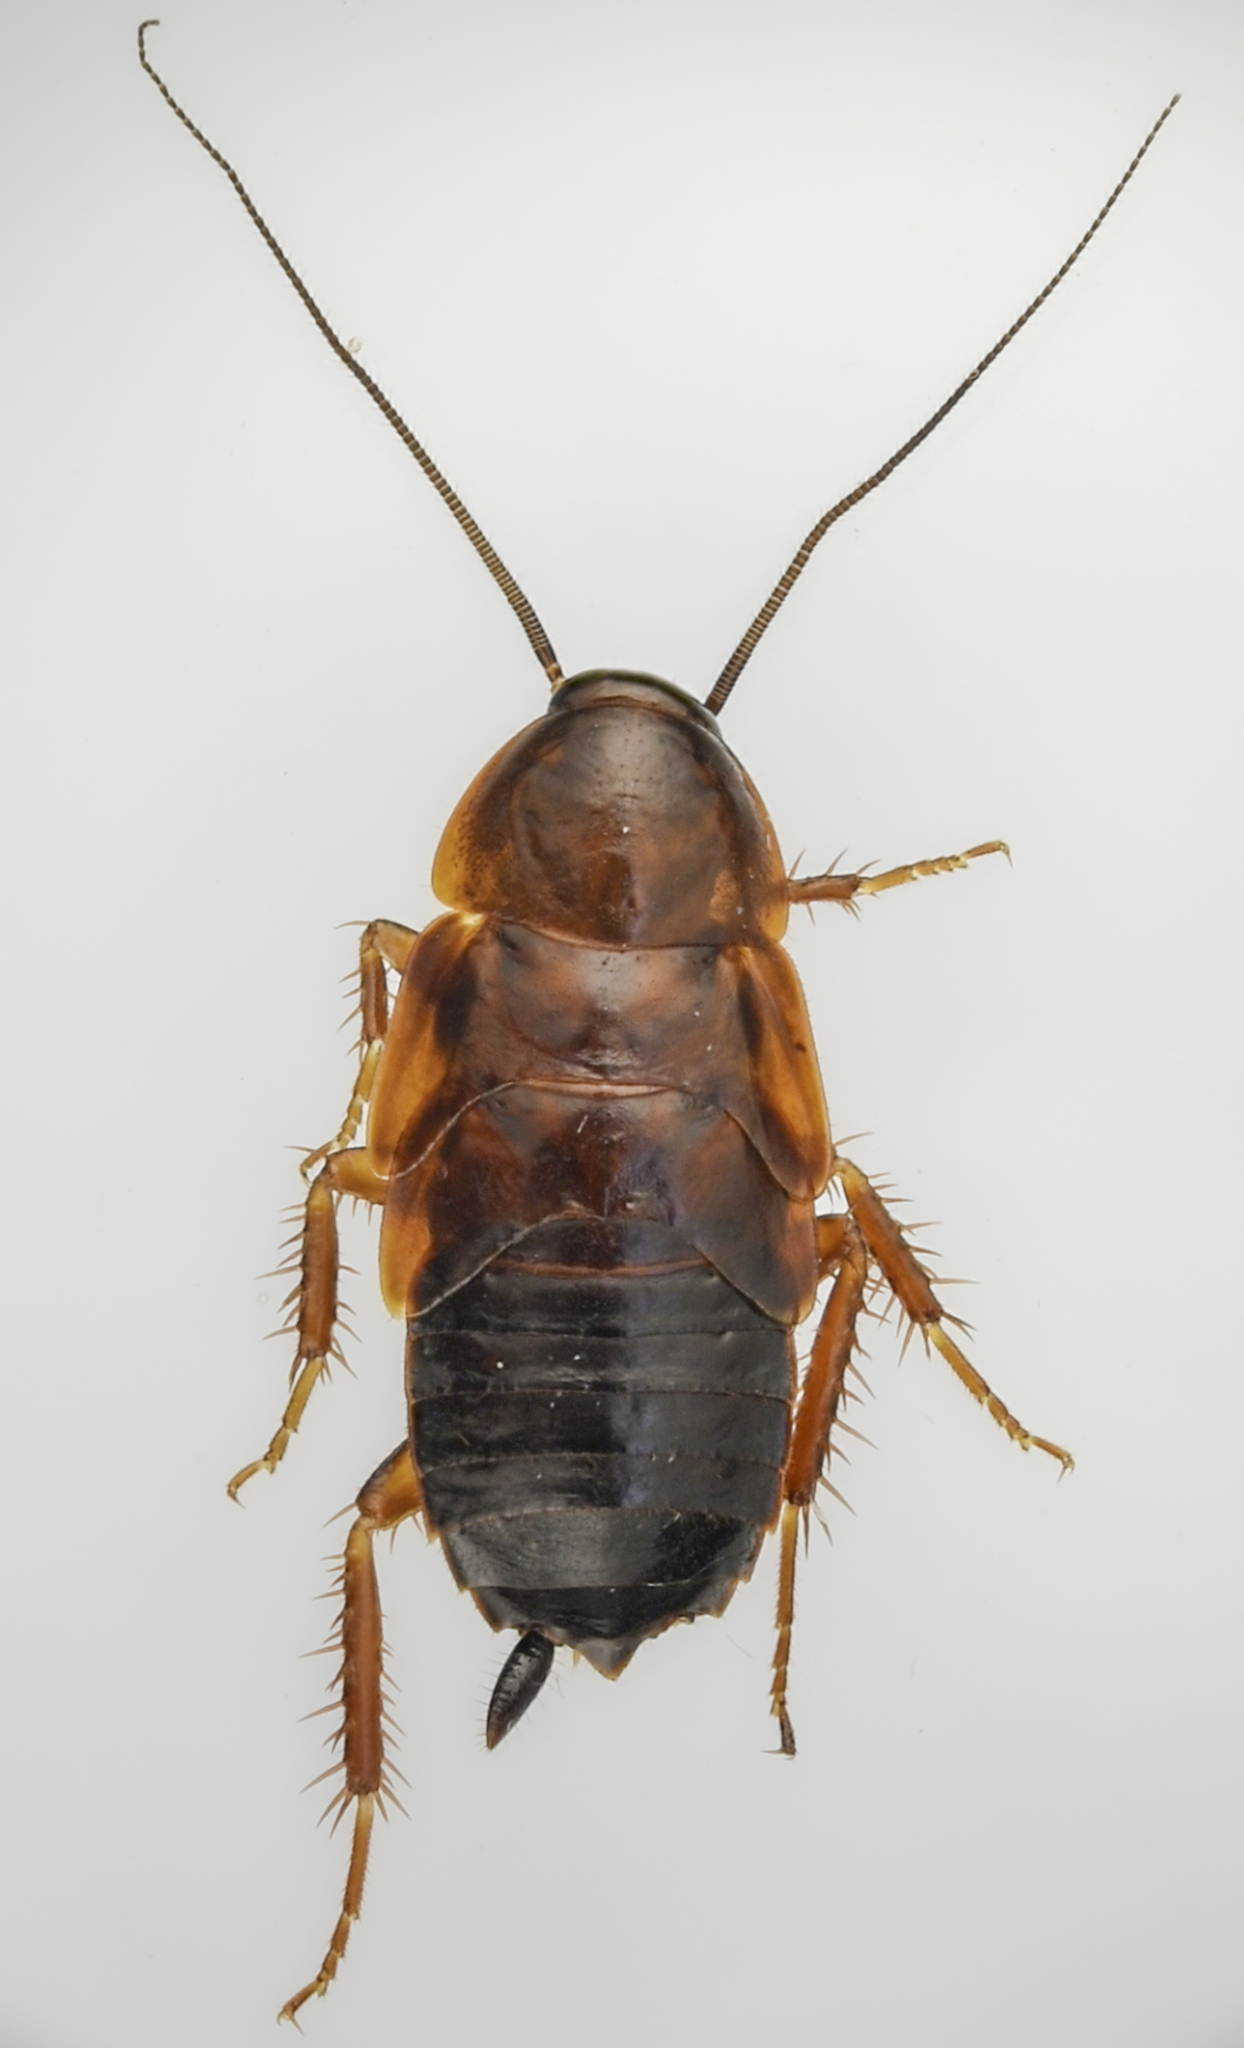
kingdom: Animalia
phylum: Arthropoda
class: Insecta
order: Blattodea
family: Ectobiidae
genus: Parcoblatta
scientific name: Parcoblatta americana
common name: Western wood cockroach
